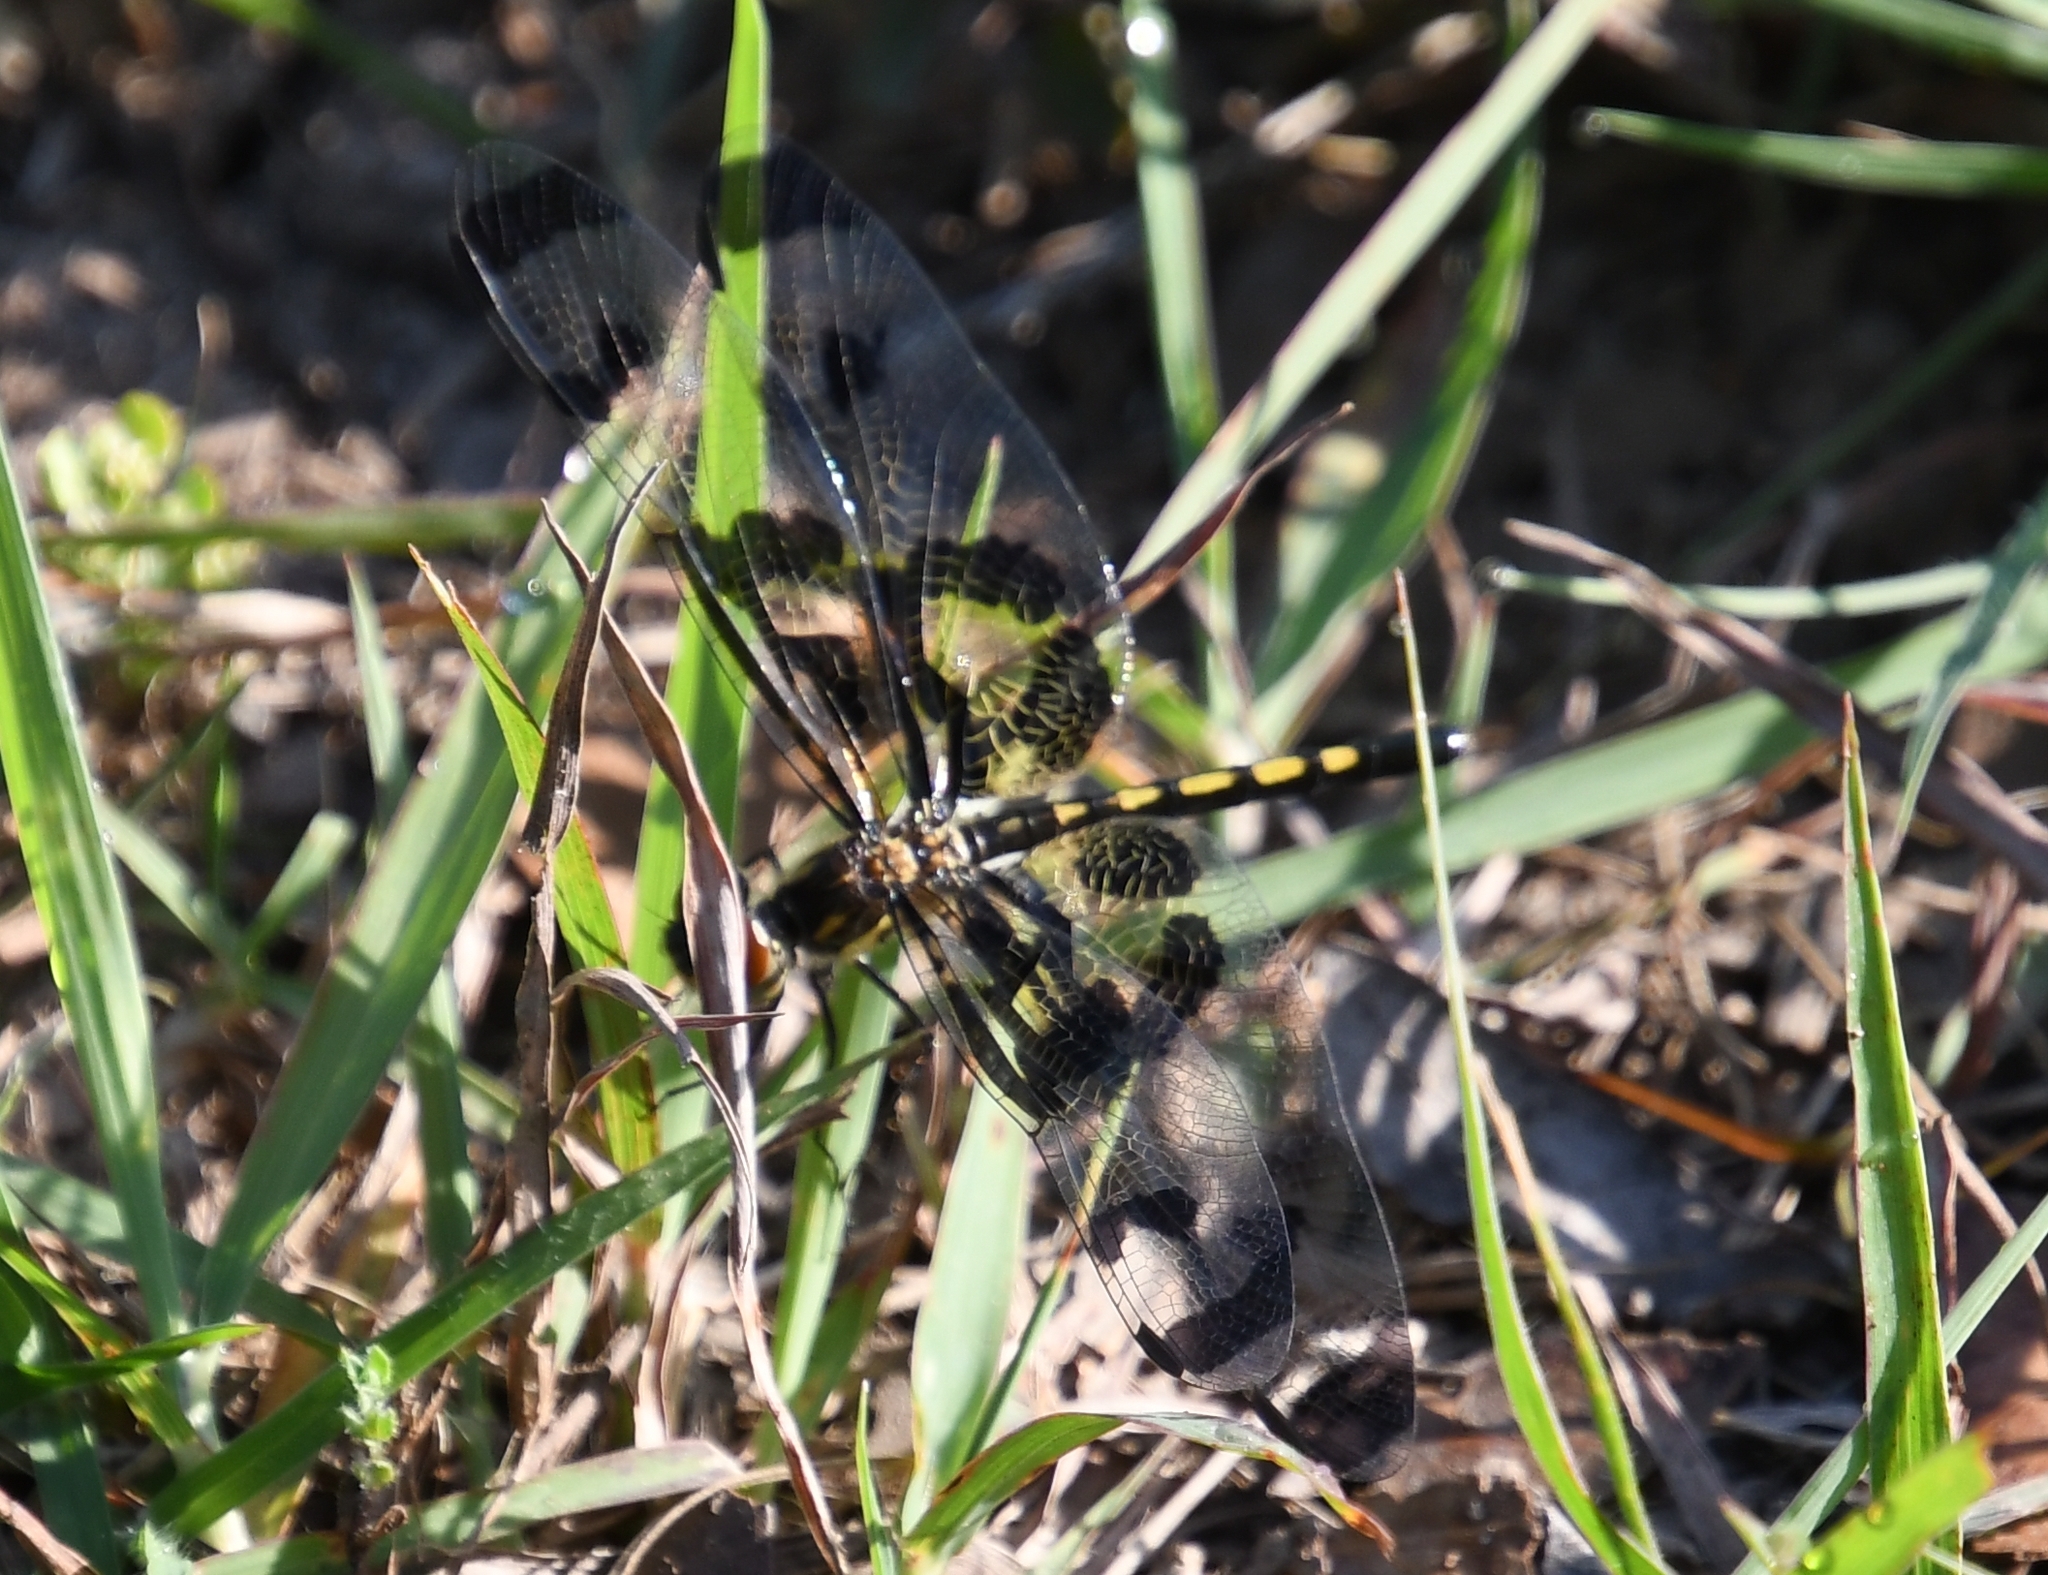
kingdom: Animalia
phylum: Arthropoda
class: Insecta
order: Odonata
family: Libellulidae
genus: Celithemis
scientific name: Celithemis fasciata
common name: Banded pennant
